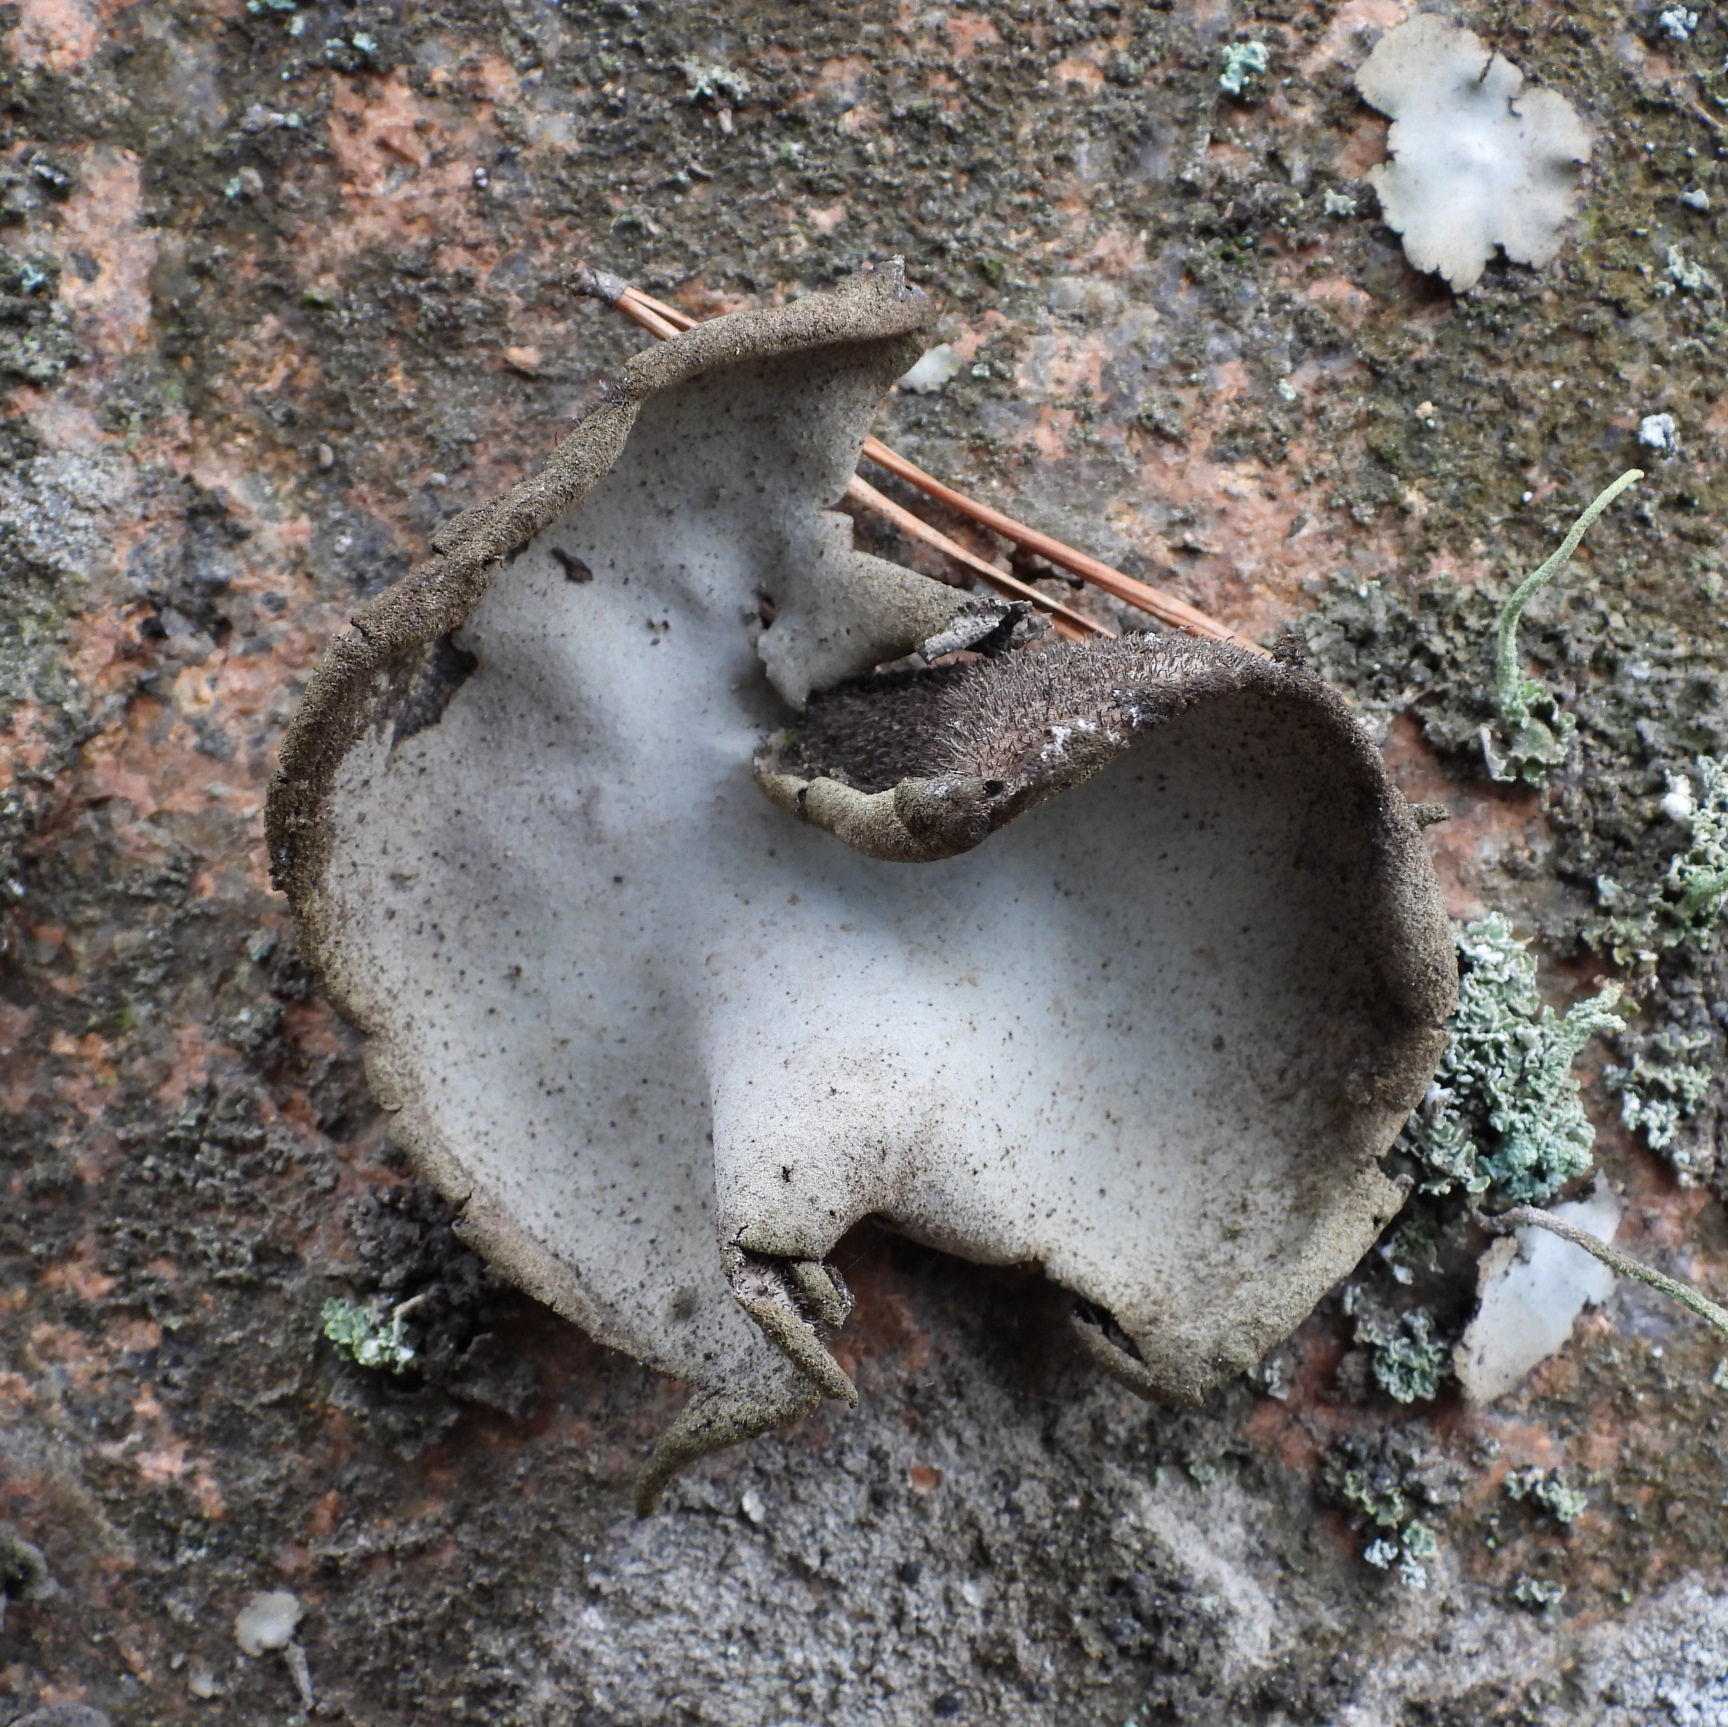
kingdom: Fungi
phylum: Ascomycota
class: Lecanoromycetes
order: Umbilicariales
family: Umbilicariaceae
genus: Umbilicaria
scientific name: Umbilicaria hirsuta
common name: Granulating rocktripe lichen
